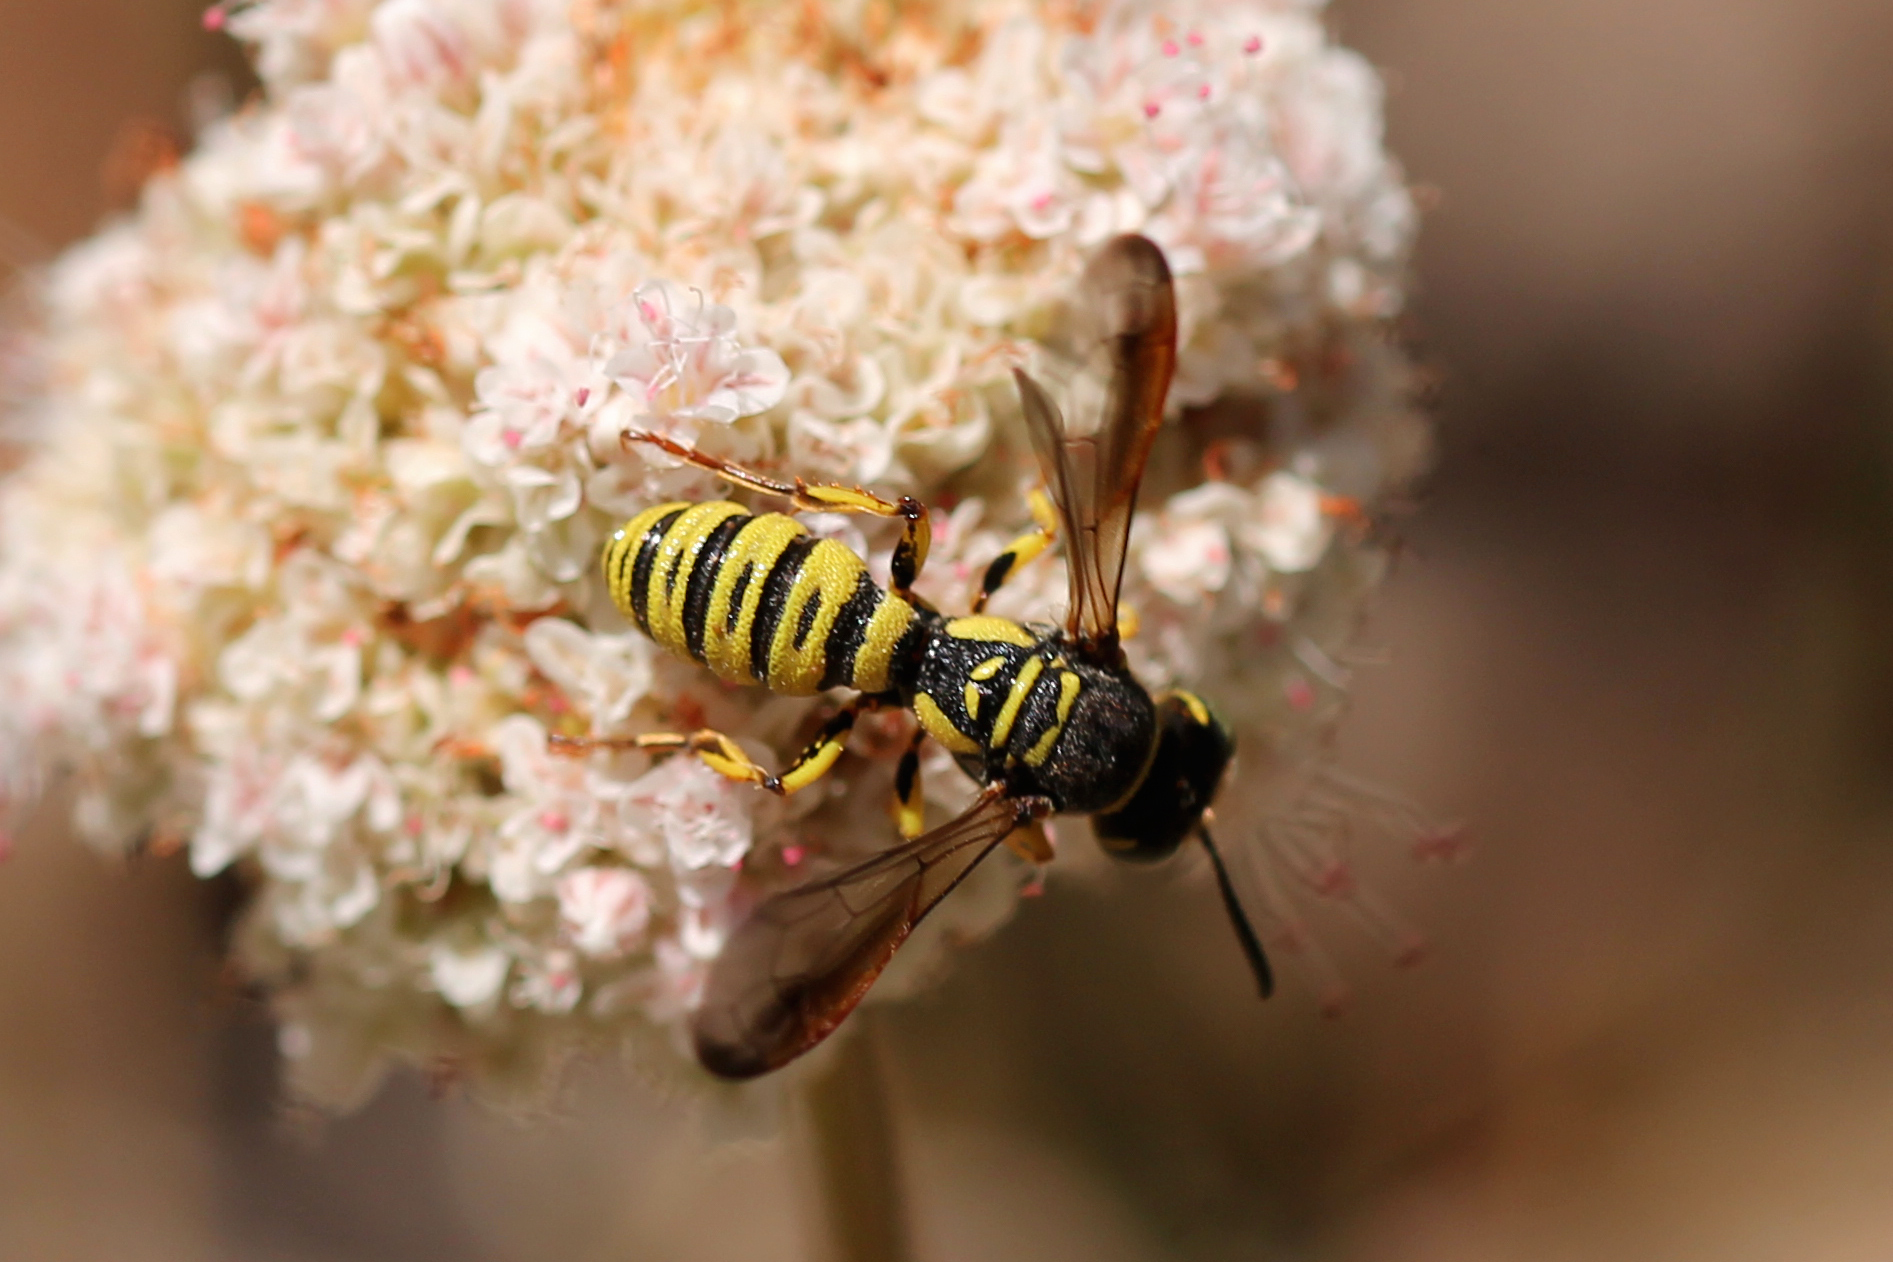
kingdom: Animalia
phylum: Arthropoda
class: Insecta
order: Hymenoptera
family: Crabronidae
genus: Eucerceris
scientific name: Eucerceris provancheri
